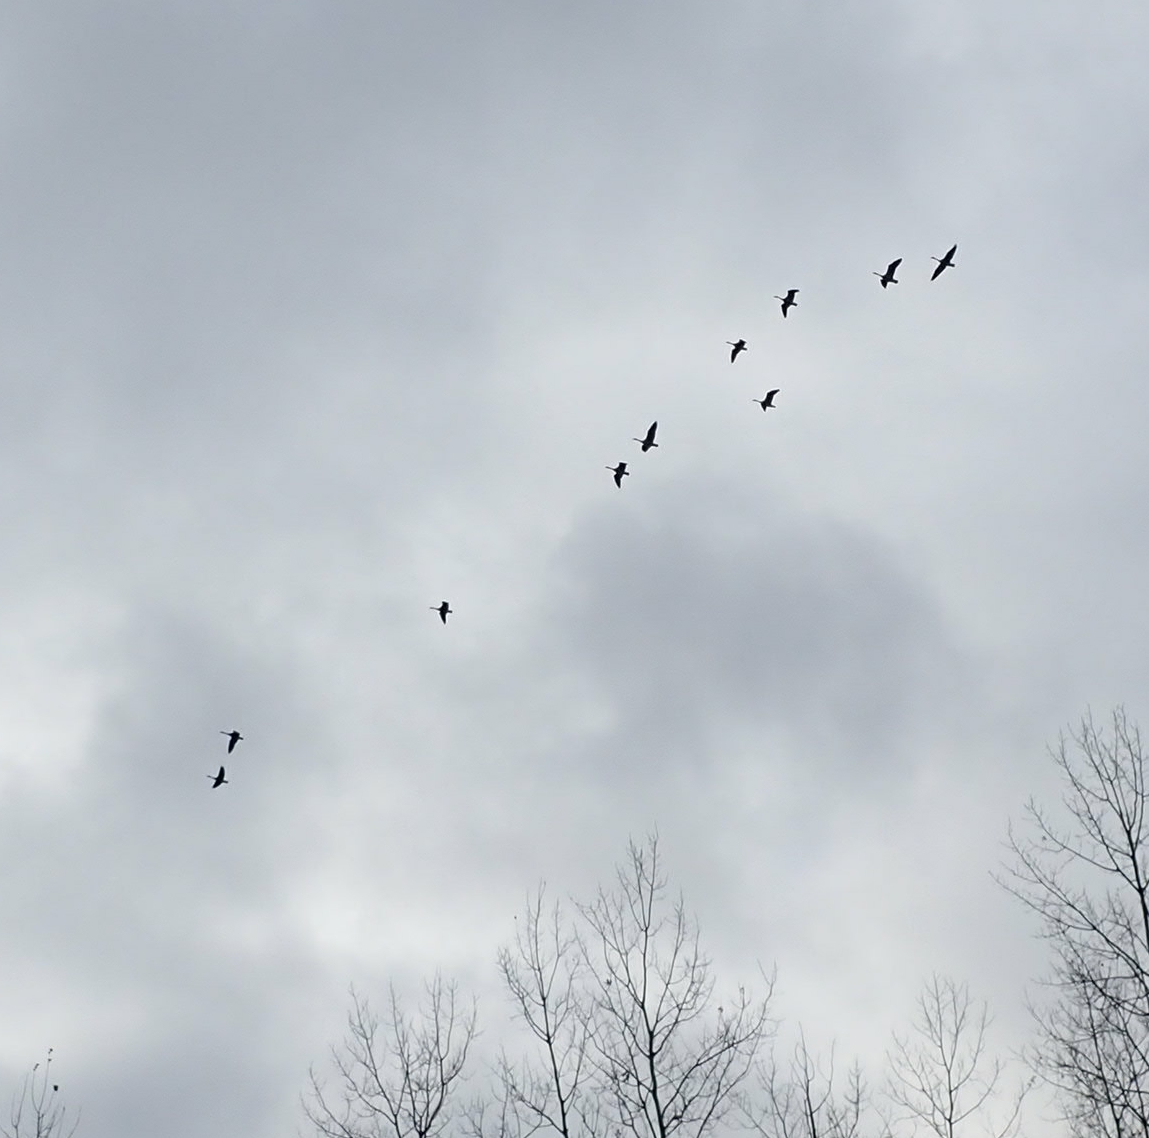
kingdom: Animalia
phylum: Chordata
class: Aves
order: Anseriformes
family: Anatidae
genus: Branta
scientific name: Branta canadensis
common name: Canada goose
